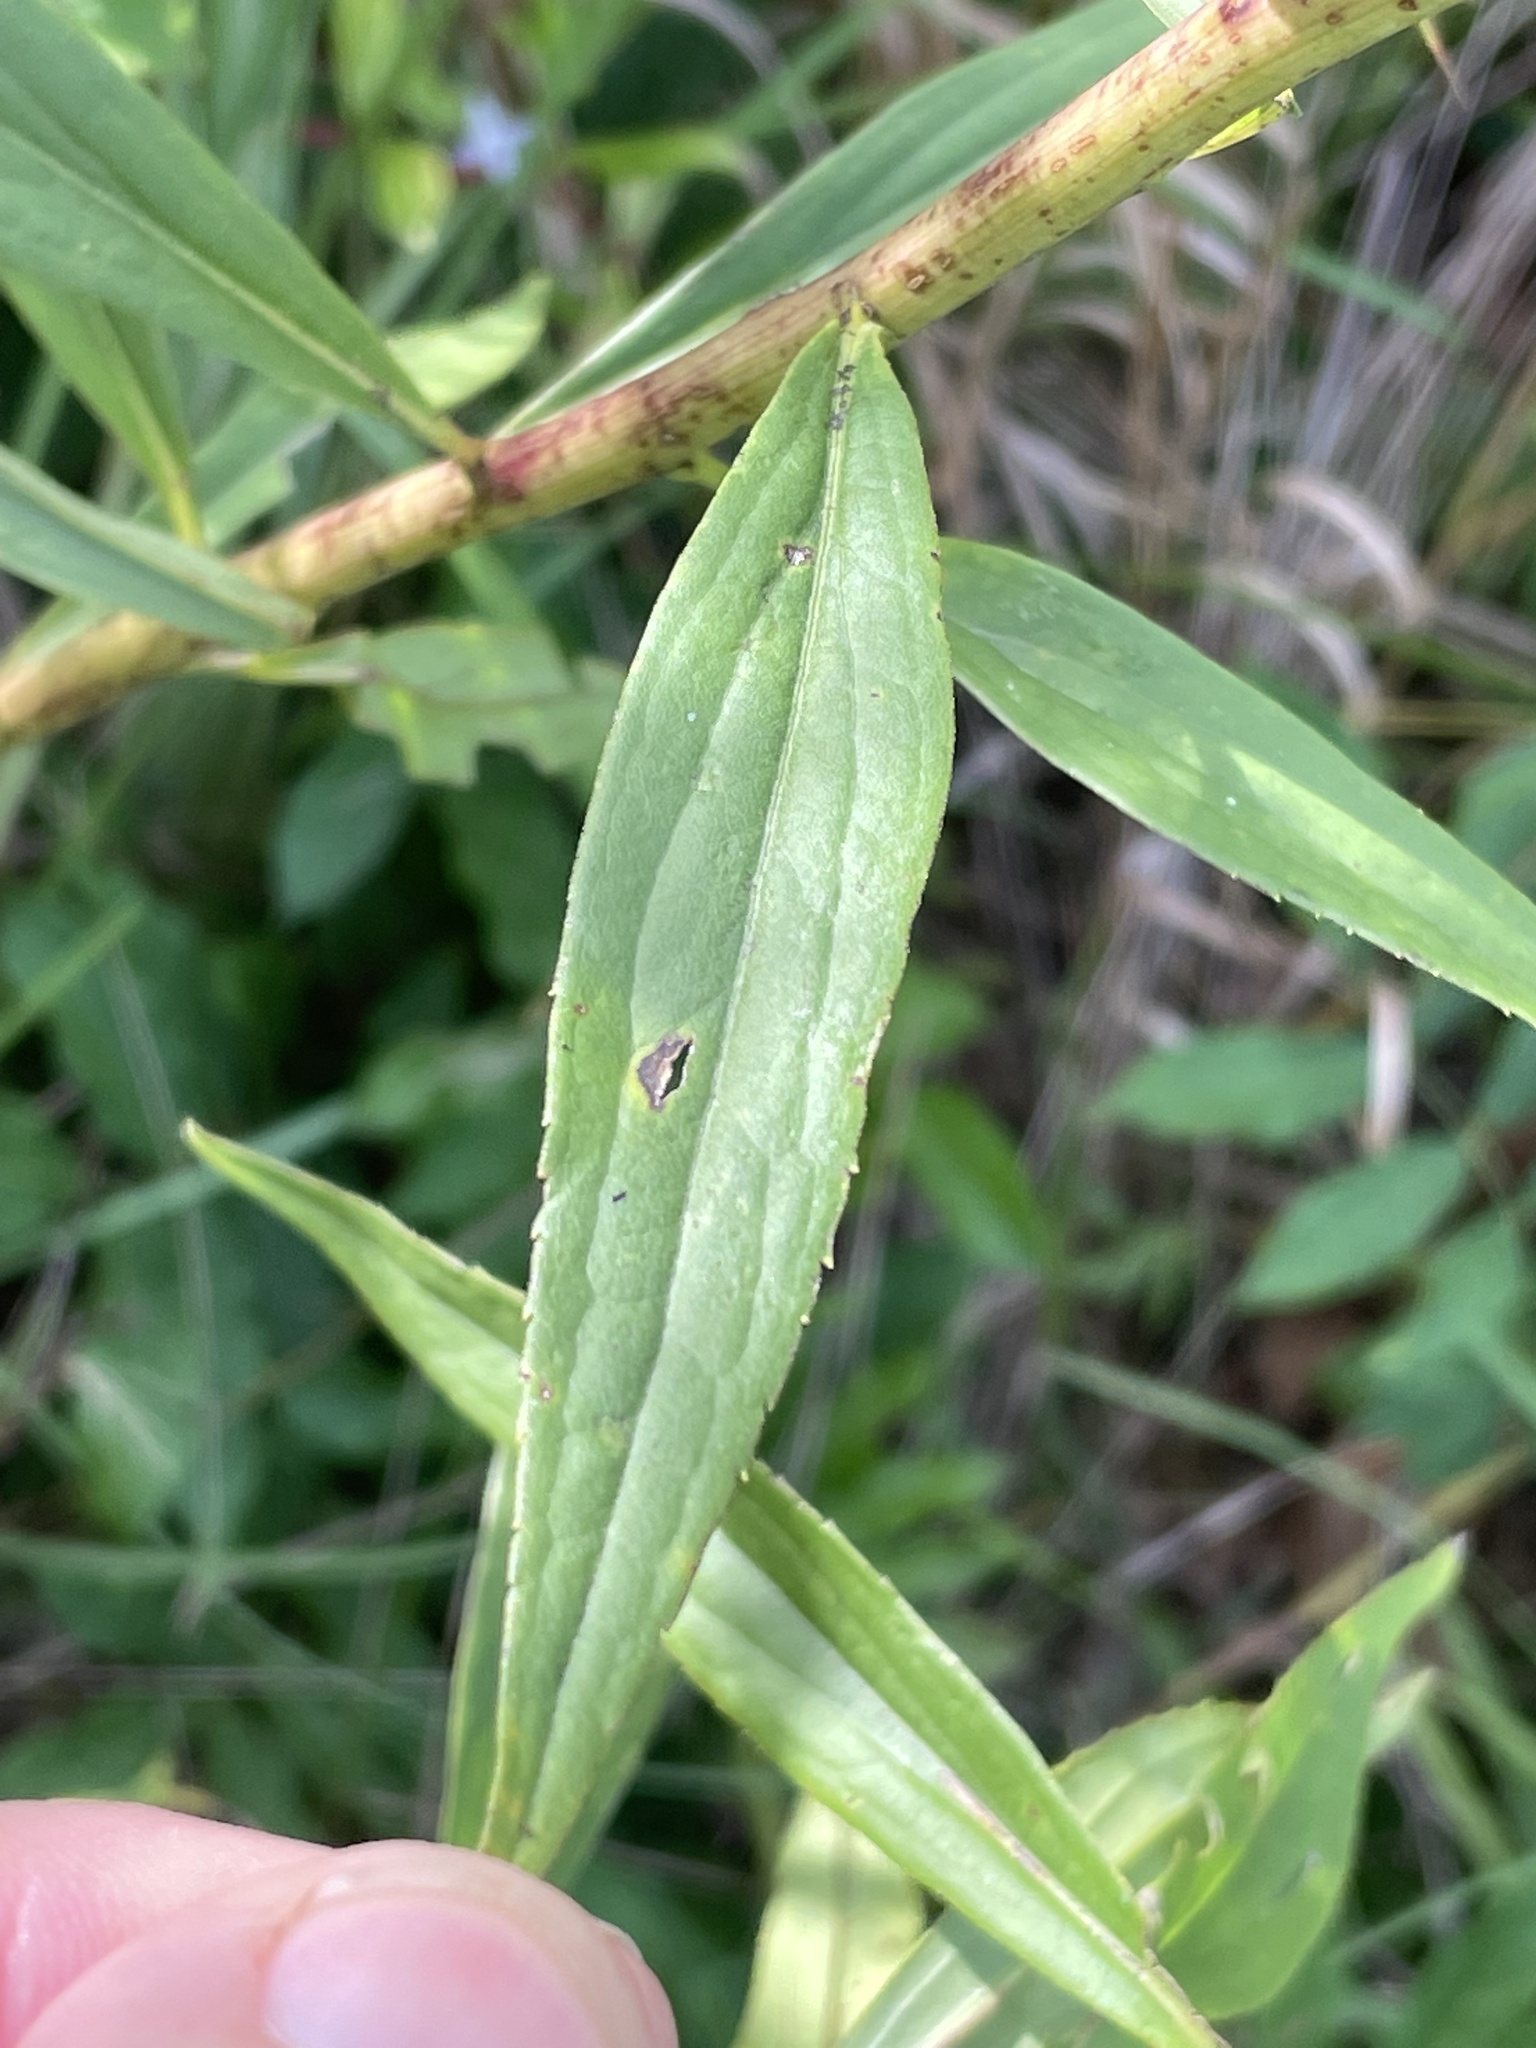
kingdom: Plantae
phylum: Tracheophyta
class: Magnoliopsida
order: Asterales
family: Asteraceae
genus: Solidago
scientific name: Solidago gigantea
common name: Giant goldenrod
